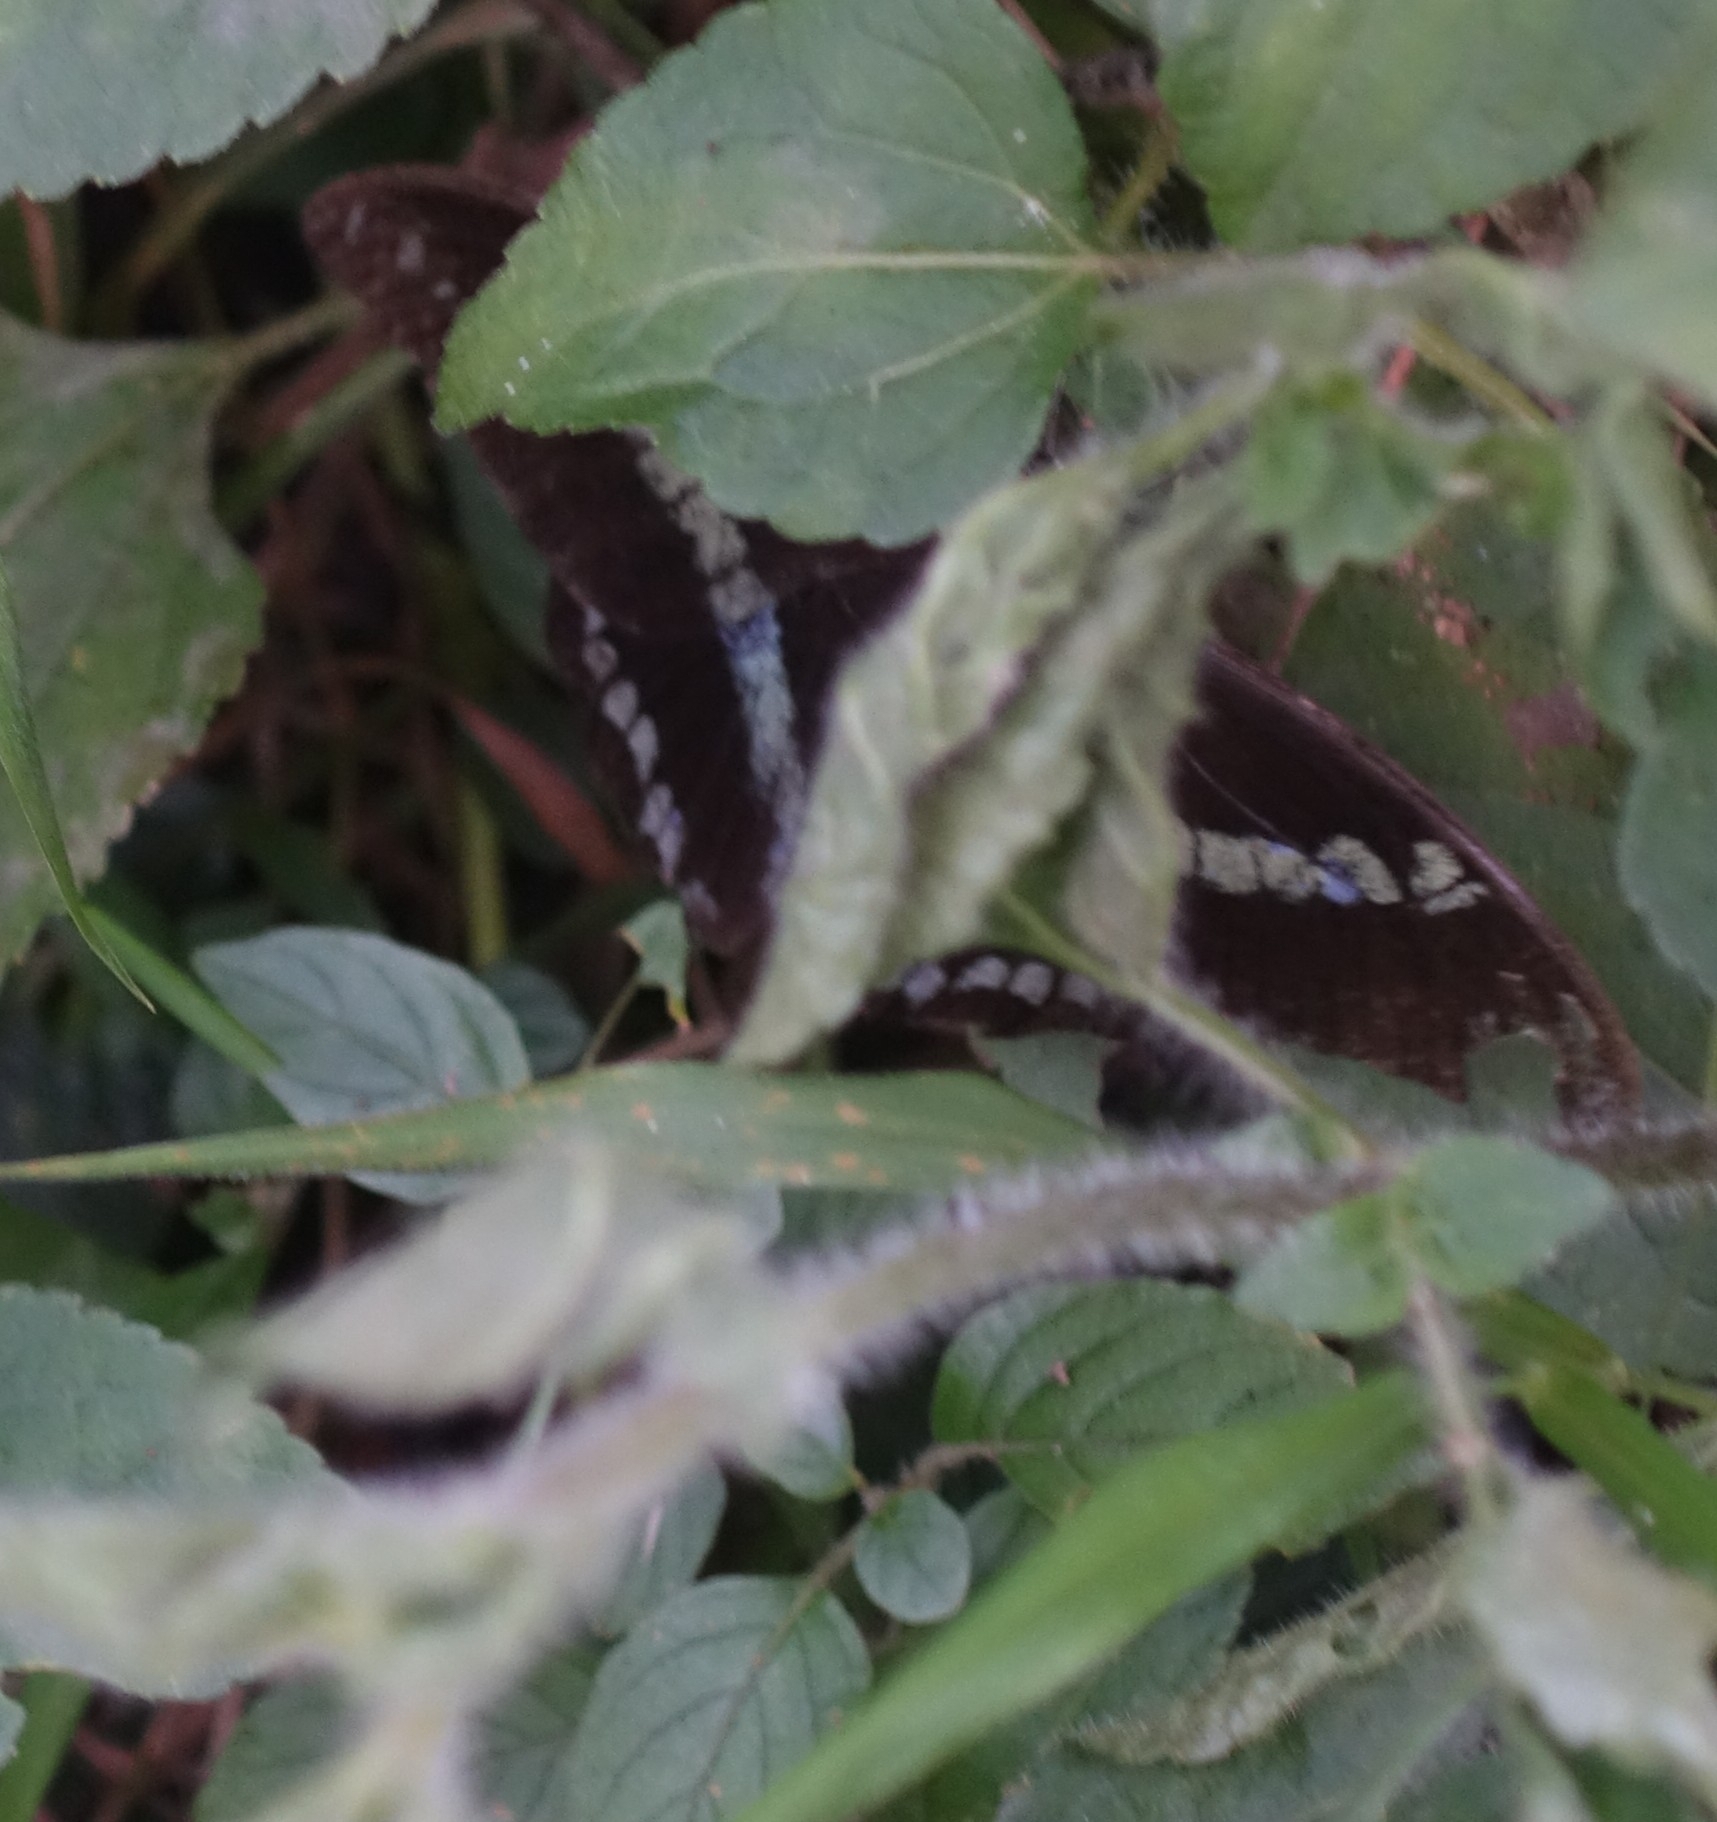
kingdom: Animalia
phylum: Arthropoda
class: Insecta
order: Lepidoptera
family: Papilionidae
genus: Papilio
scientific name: Papilio nireus
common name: Greenbanded swallowtail
